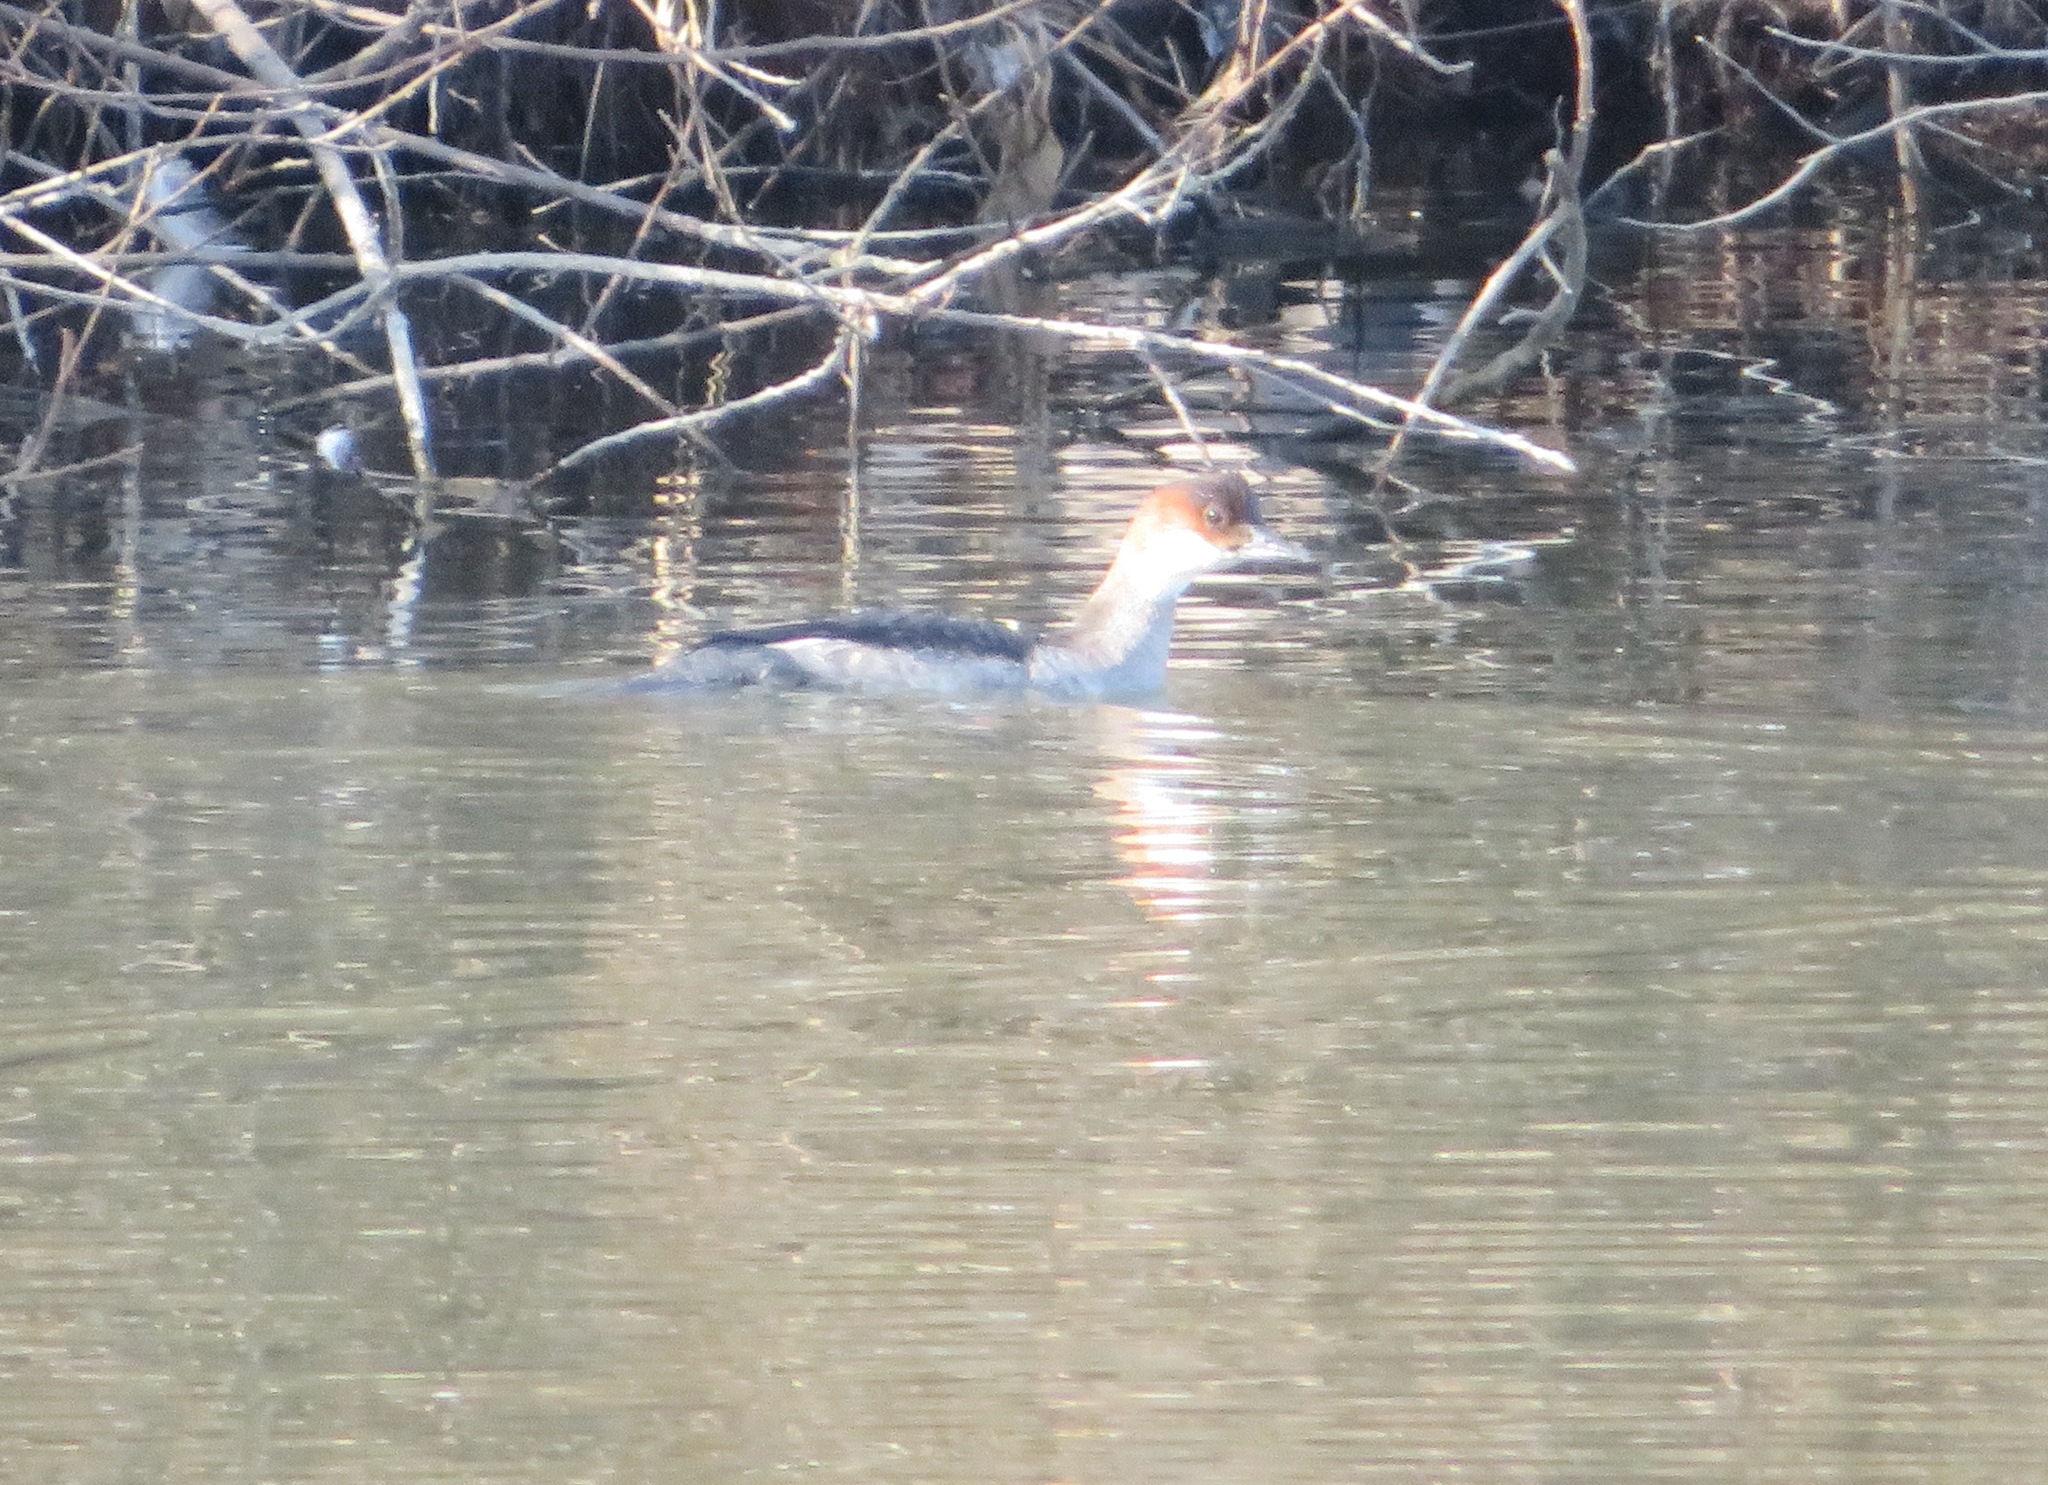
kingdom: Animalia
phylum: Chordata
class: Aves
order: Anseriformes
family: Anatidae
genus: Mergellus
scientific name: Mergellus albellus
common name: Smew
